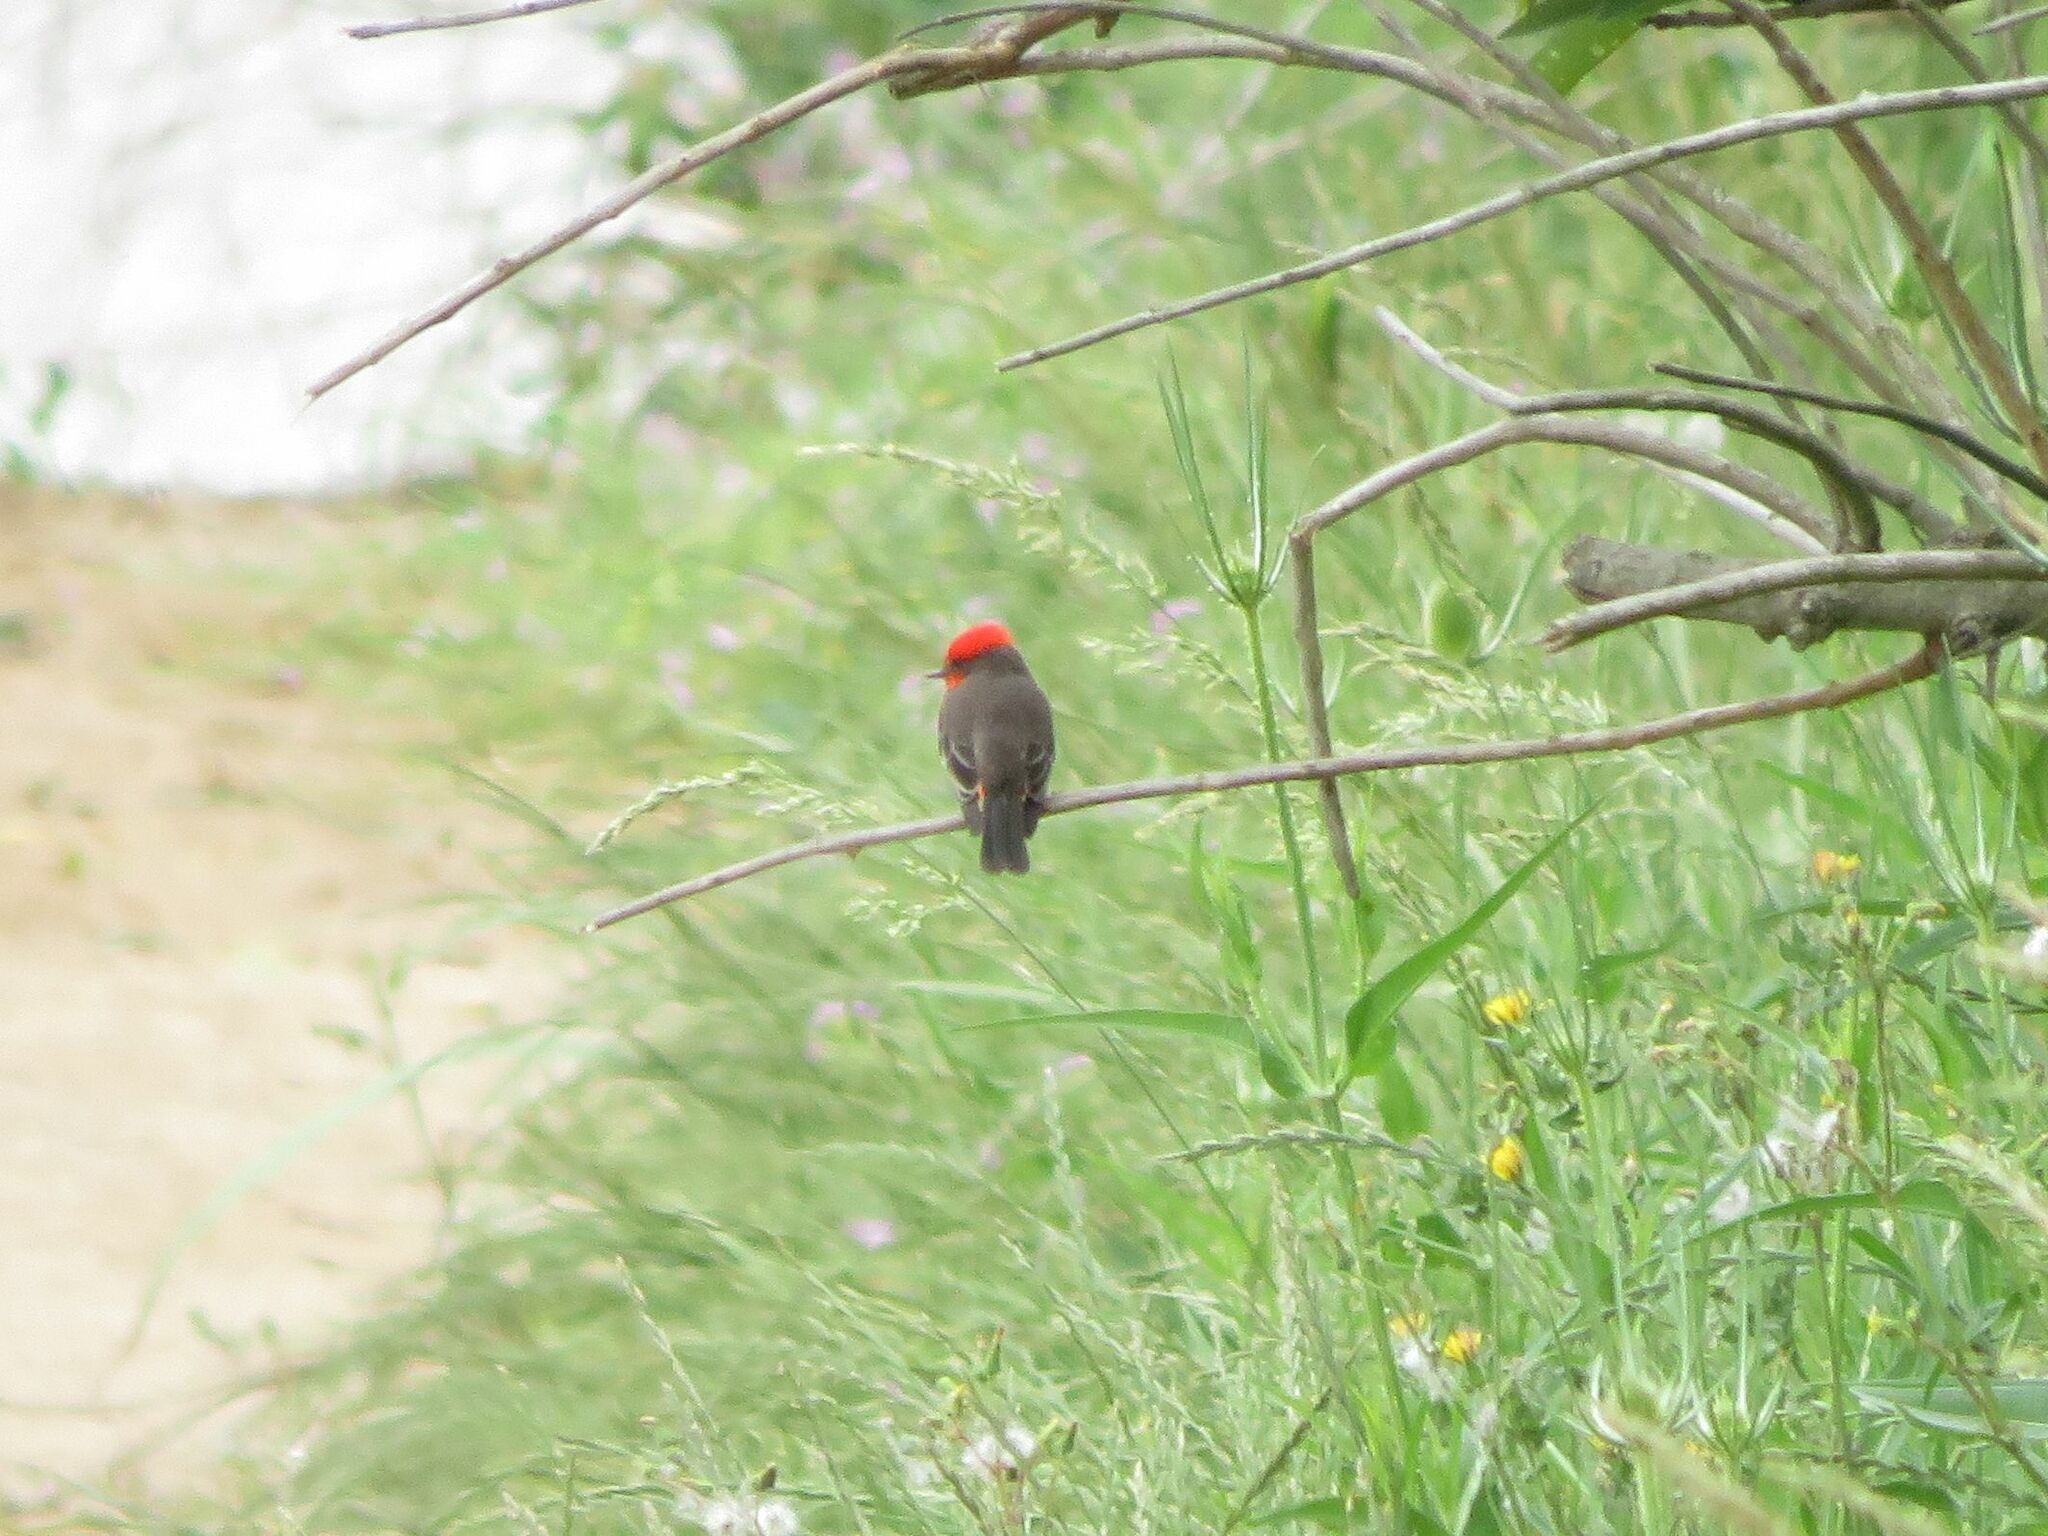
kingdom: Animalia
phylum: Chordata
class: Aves
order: Passeriformes
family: Tyrannidae
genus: Pyrocephalus
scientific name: Pyrocephalus rubinus
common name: Vermilion flycatcher
